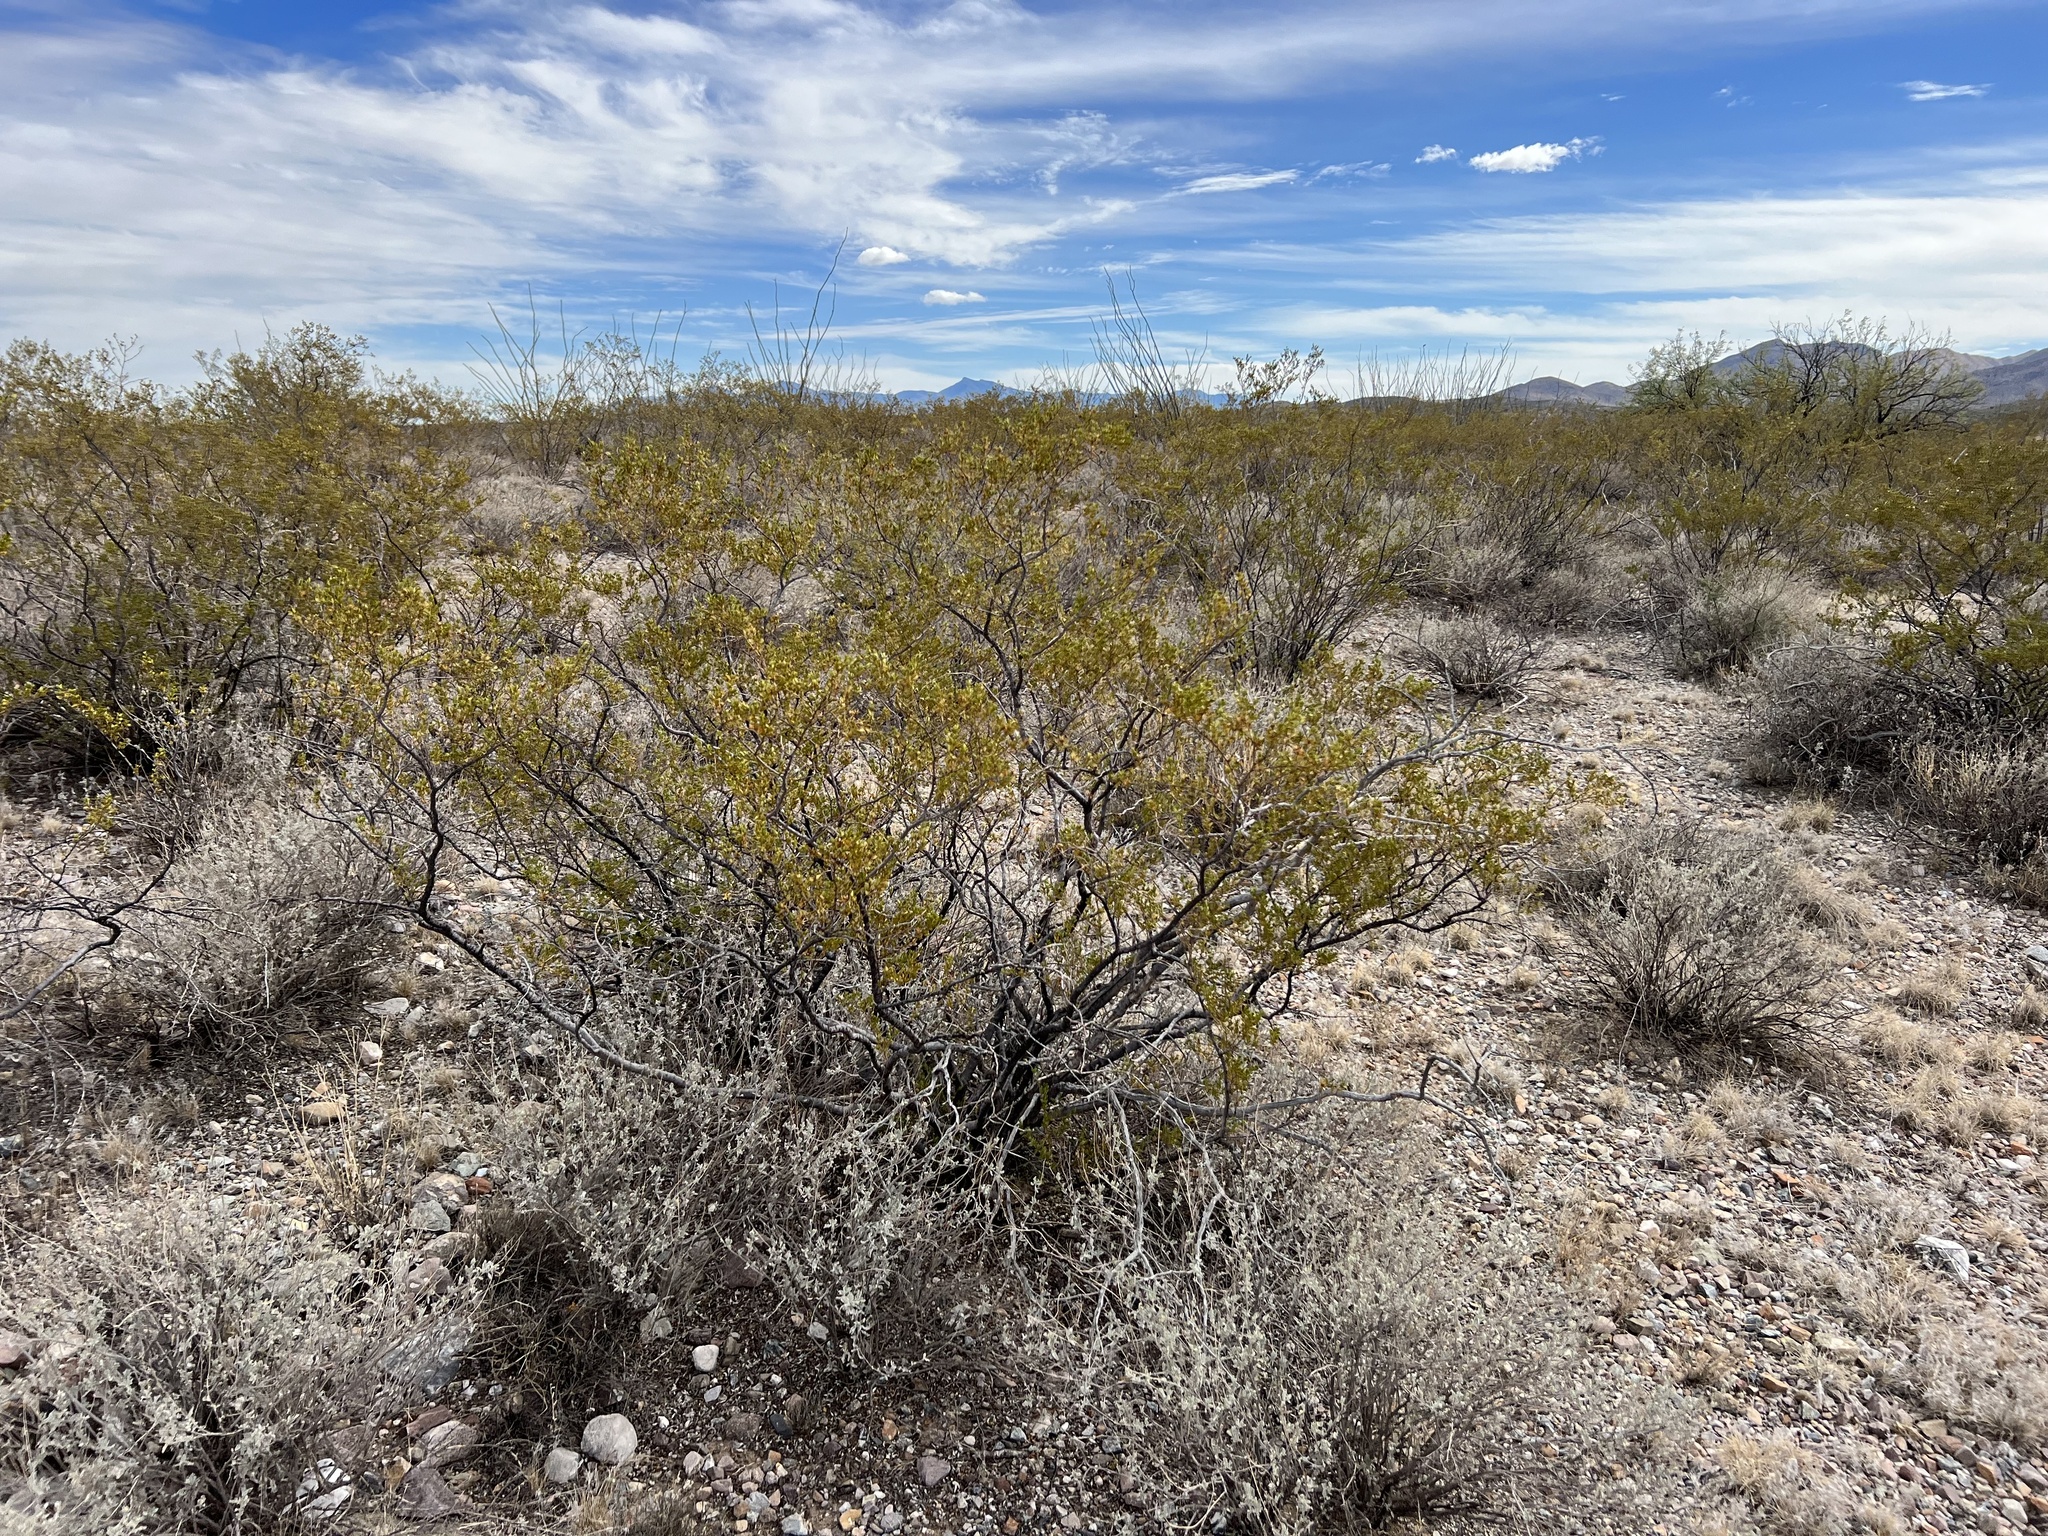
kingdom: Plantae
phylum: Tracheophyta
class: Magnoliopsida
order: Zygophyllales
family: Zygophyllaceae
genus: Larrea
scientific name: Larrea tridentata
